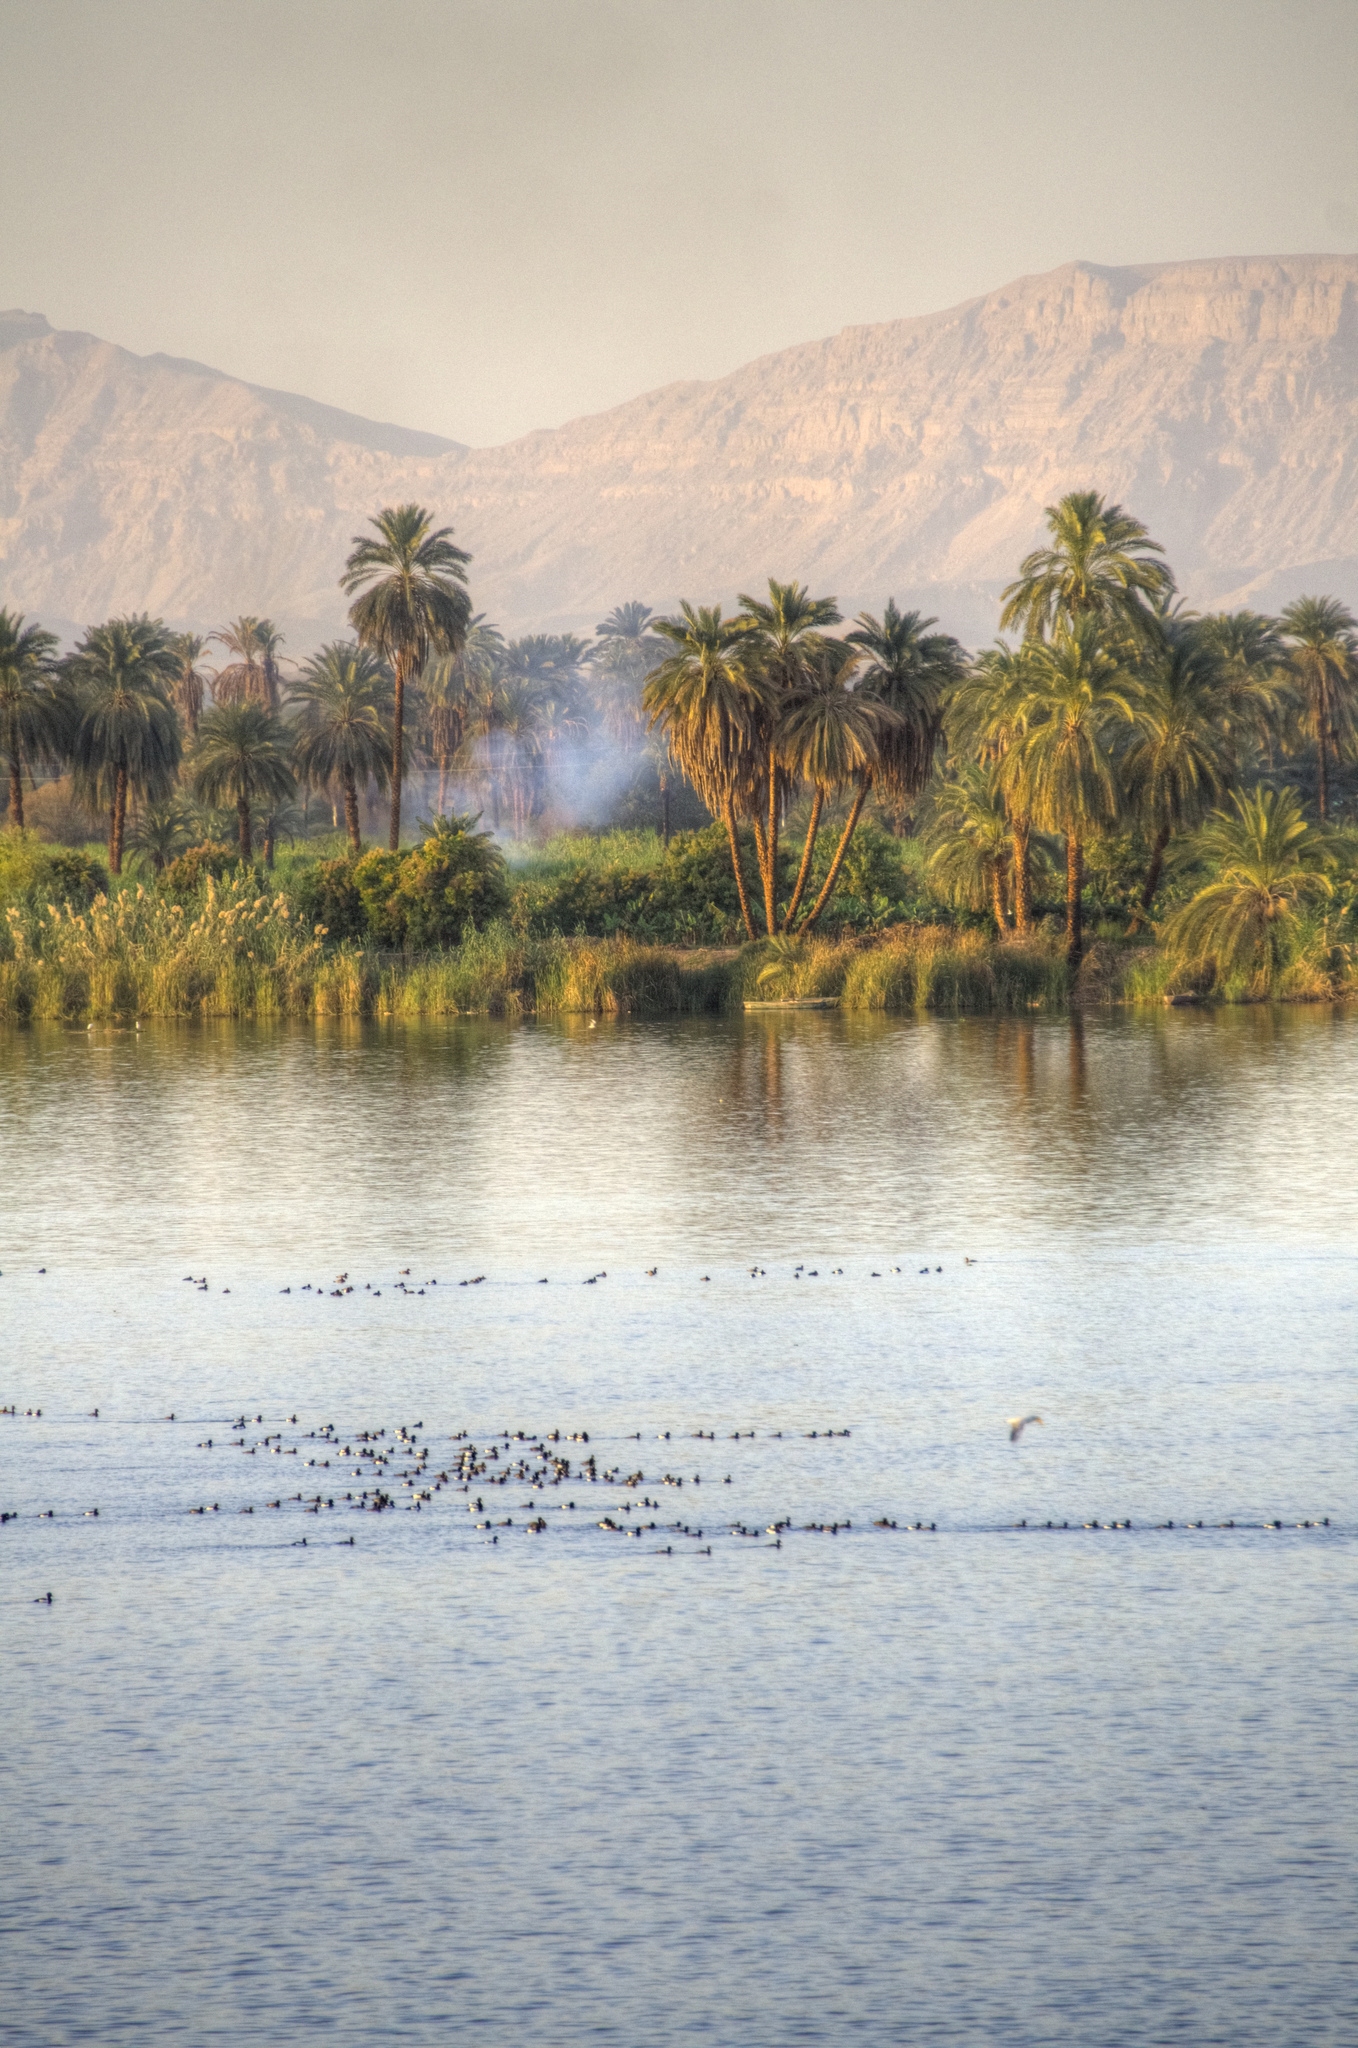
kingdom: Animalia
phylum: Chordata
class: Aves
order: Anseriformes
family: Anatidae
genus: Aythya
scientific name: Aythya fuligula
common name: Tufted duck
